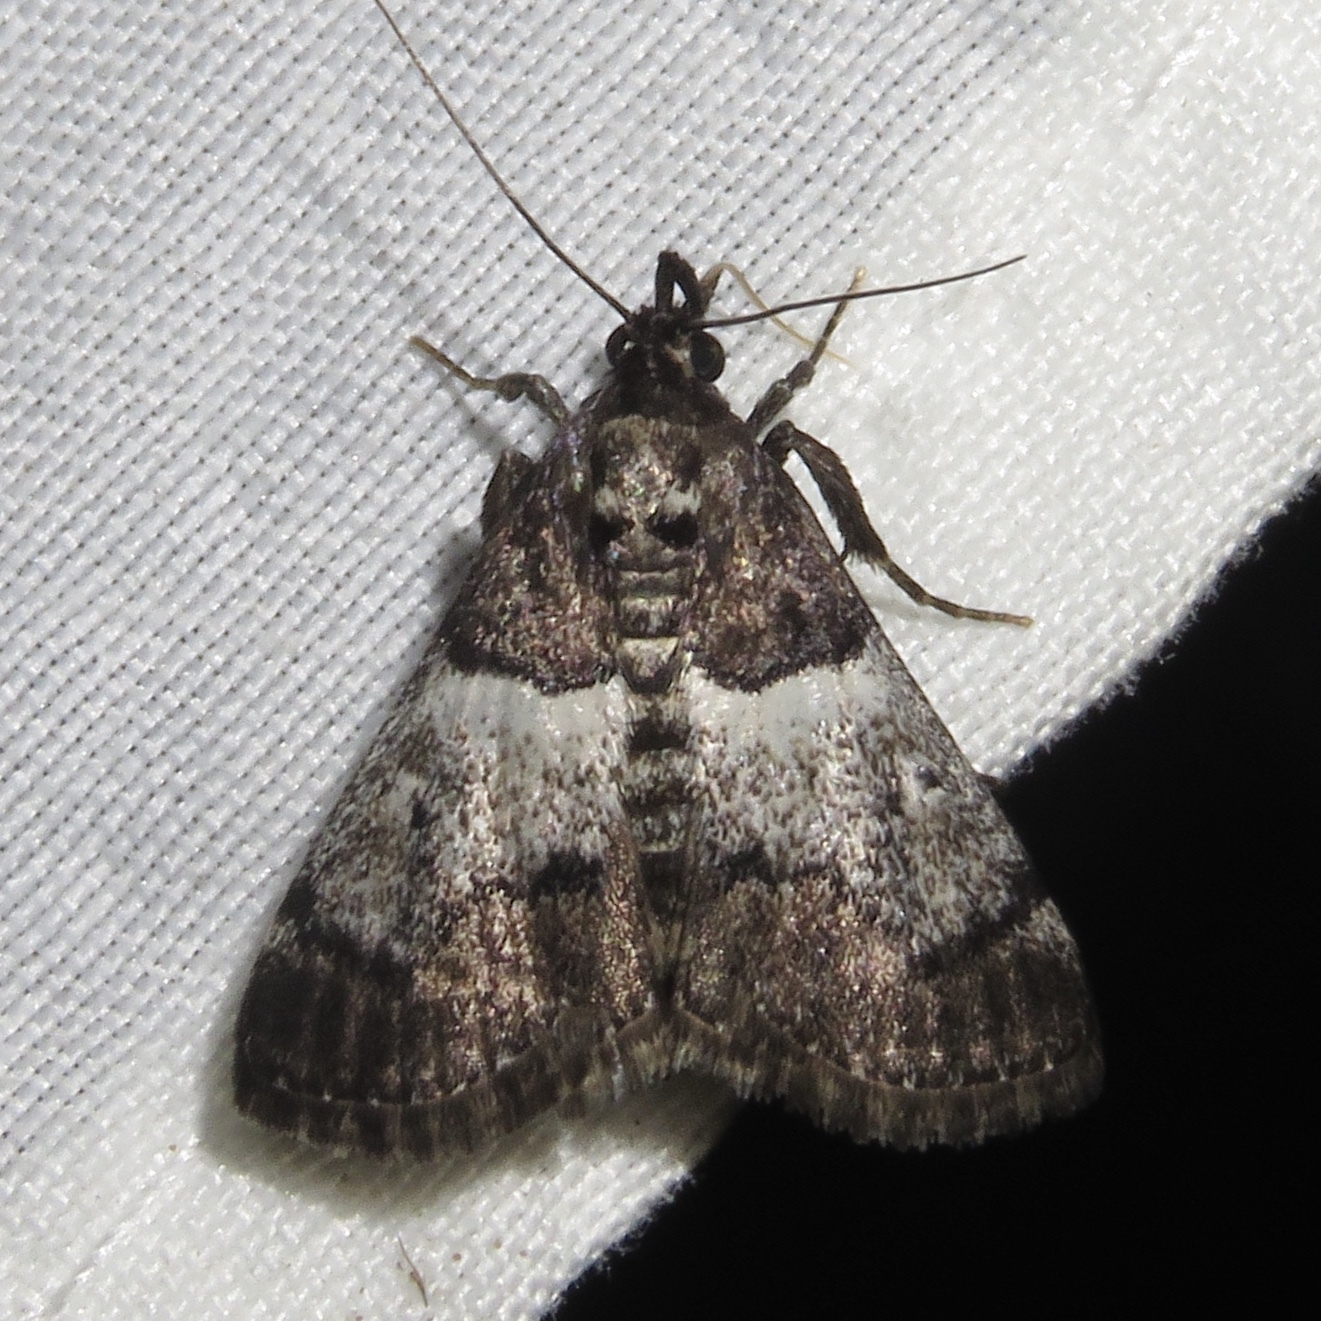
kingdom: Animalia
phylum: Arthropoda
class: Insecta
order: Lepidoptera
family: Pyralidae
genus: Macalla
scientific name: Macalla zelleri
